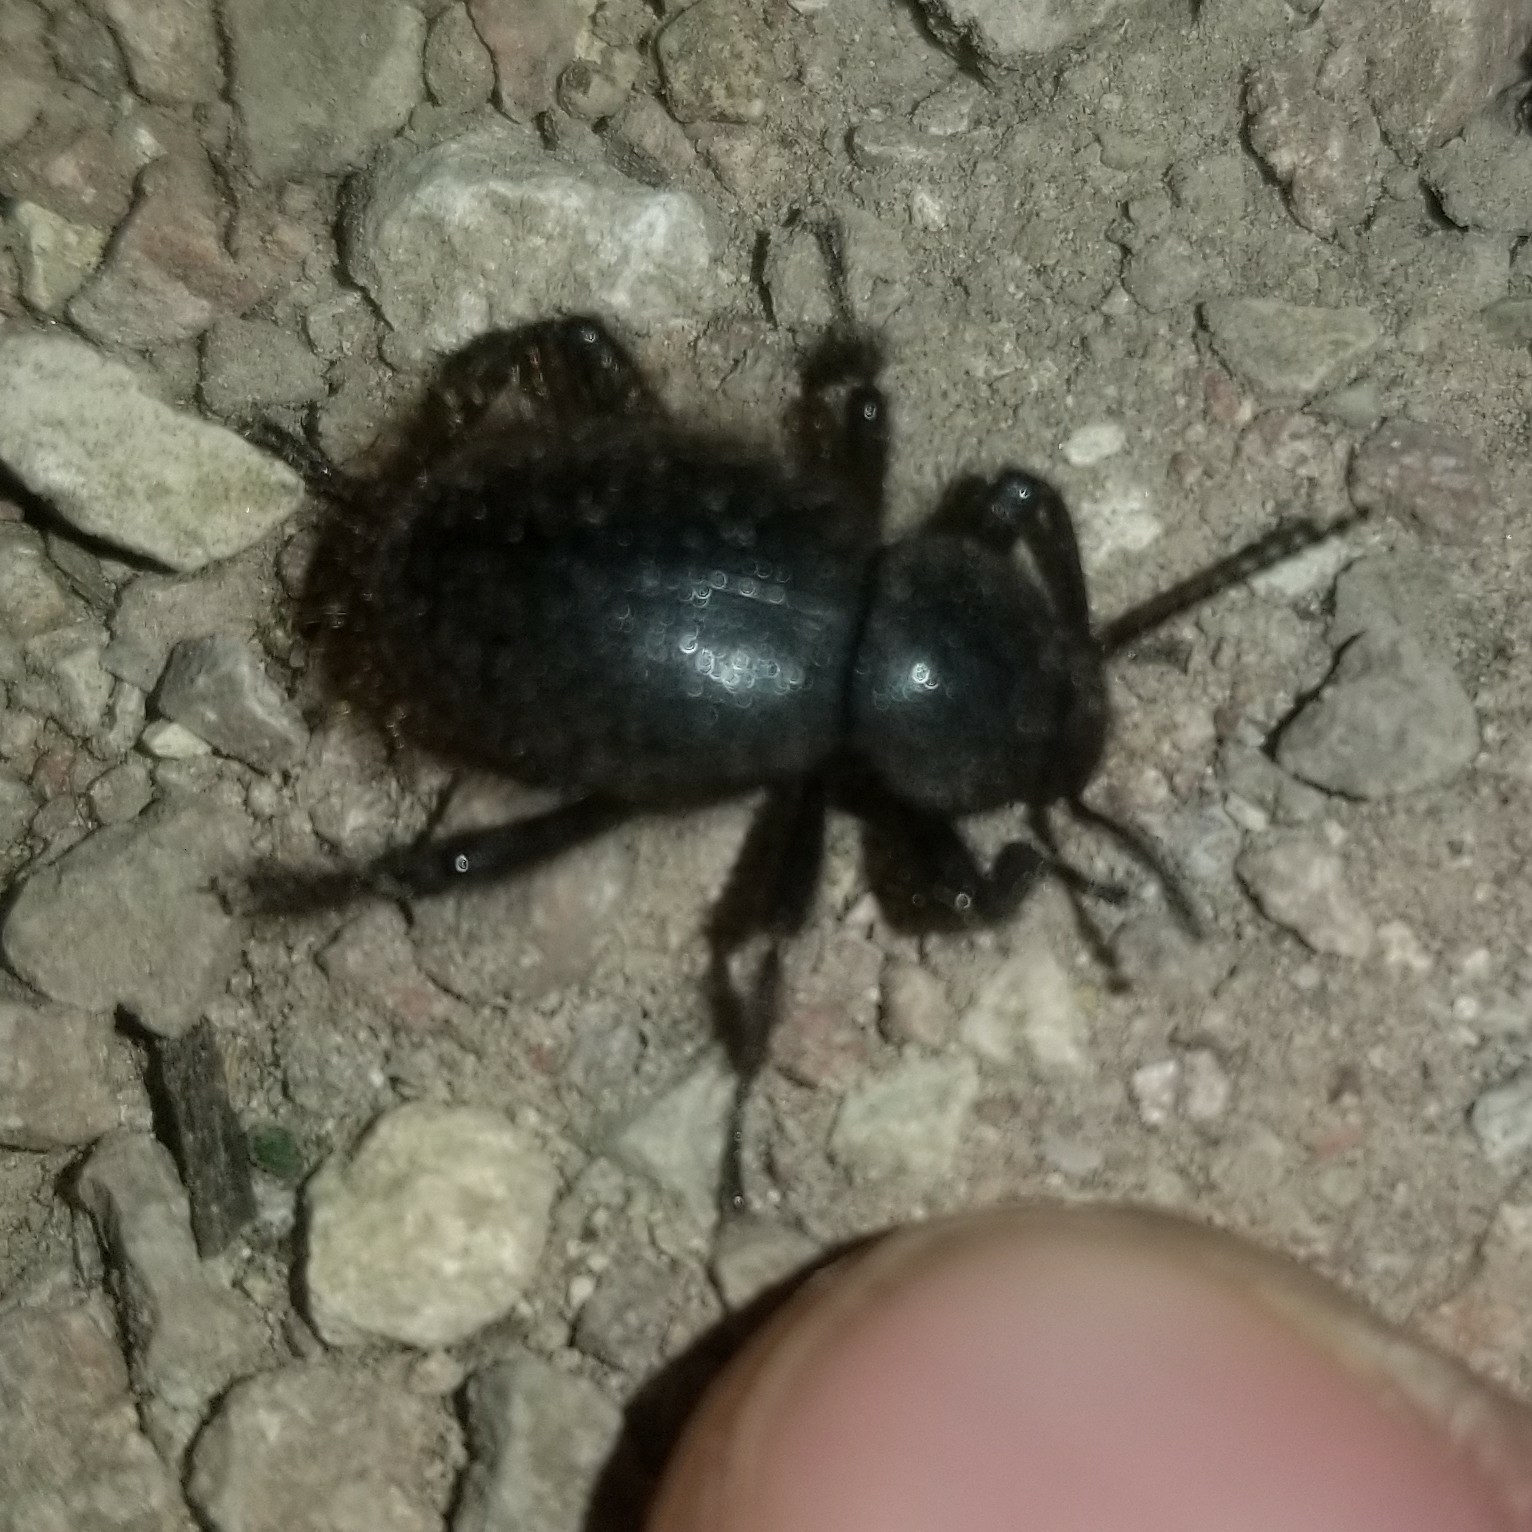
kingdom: Animalia
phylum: Arthropoda
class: Insecta
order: Coleoptera
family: Tenebrionidae
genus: Eleodes
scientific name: Eleodes osculans
